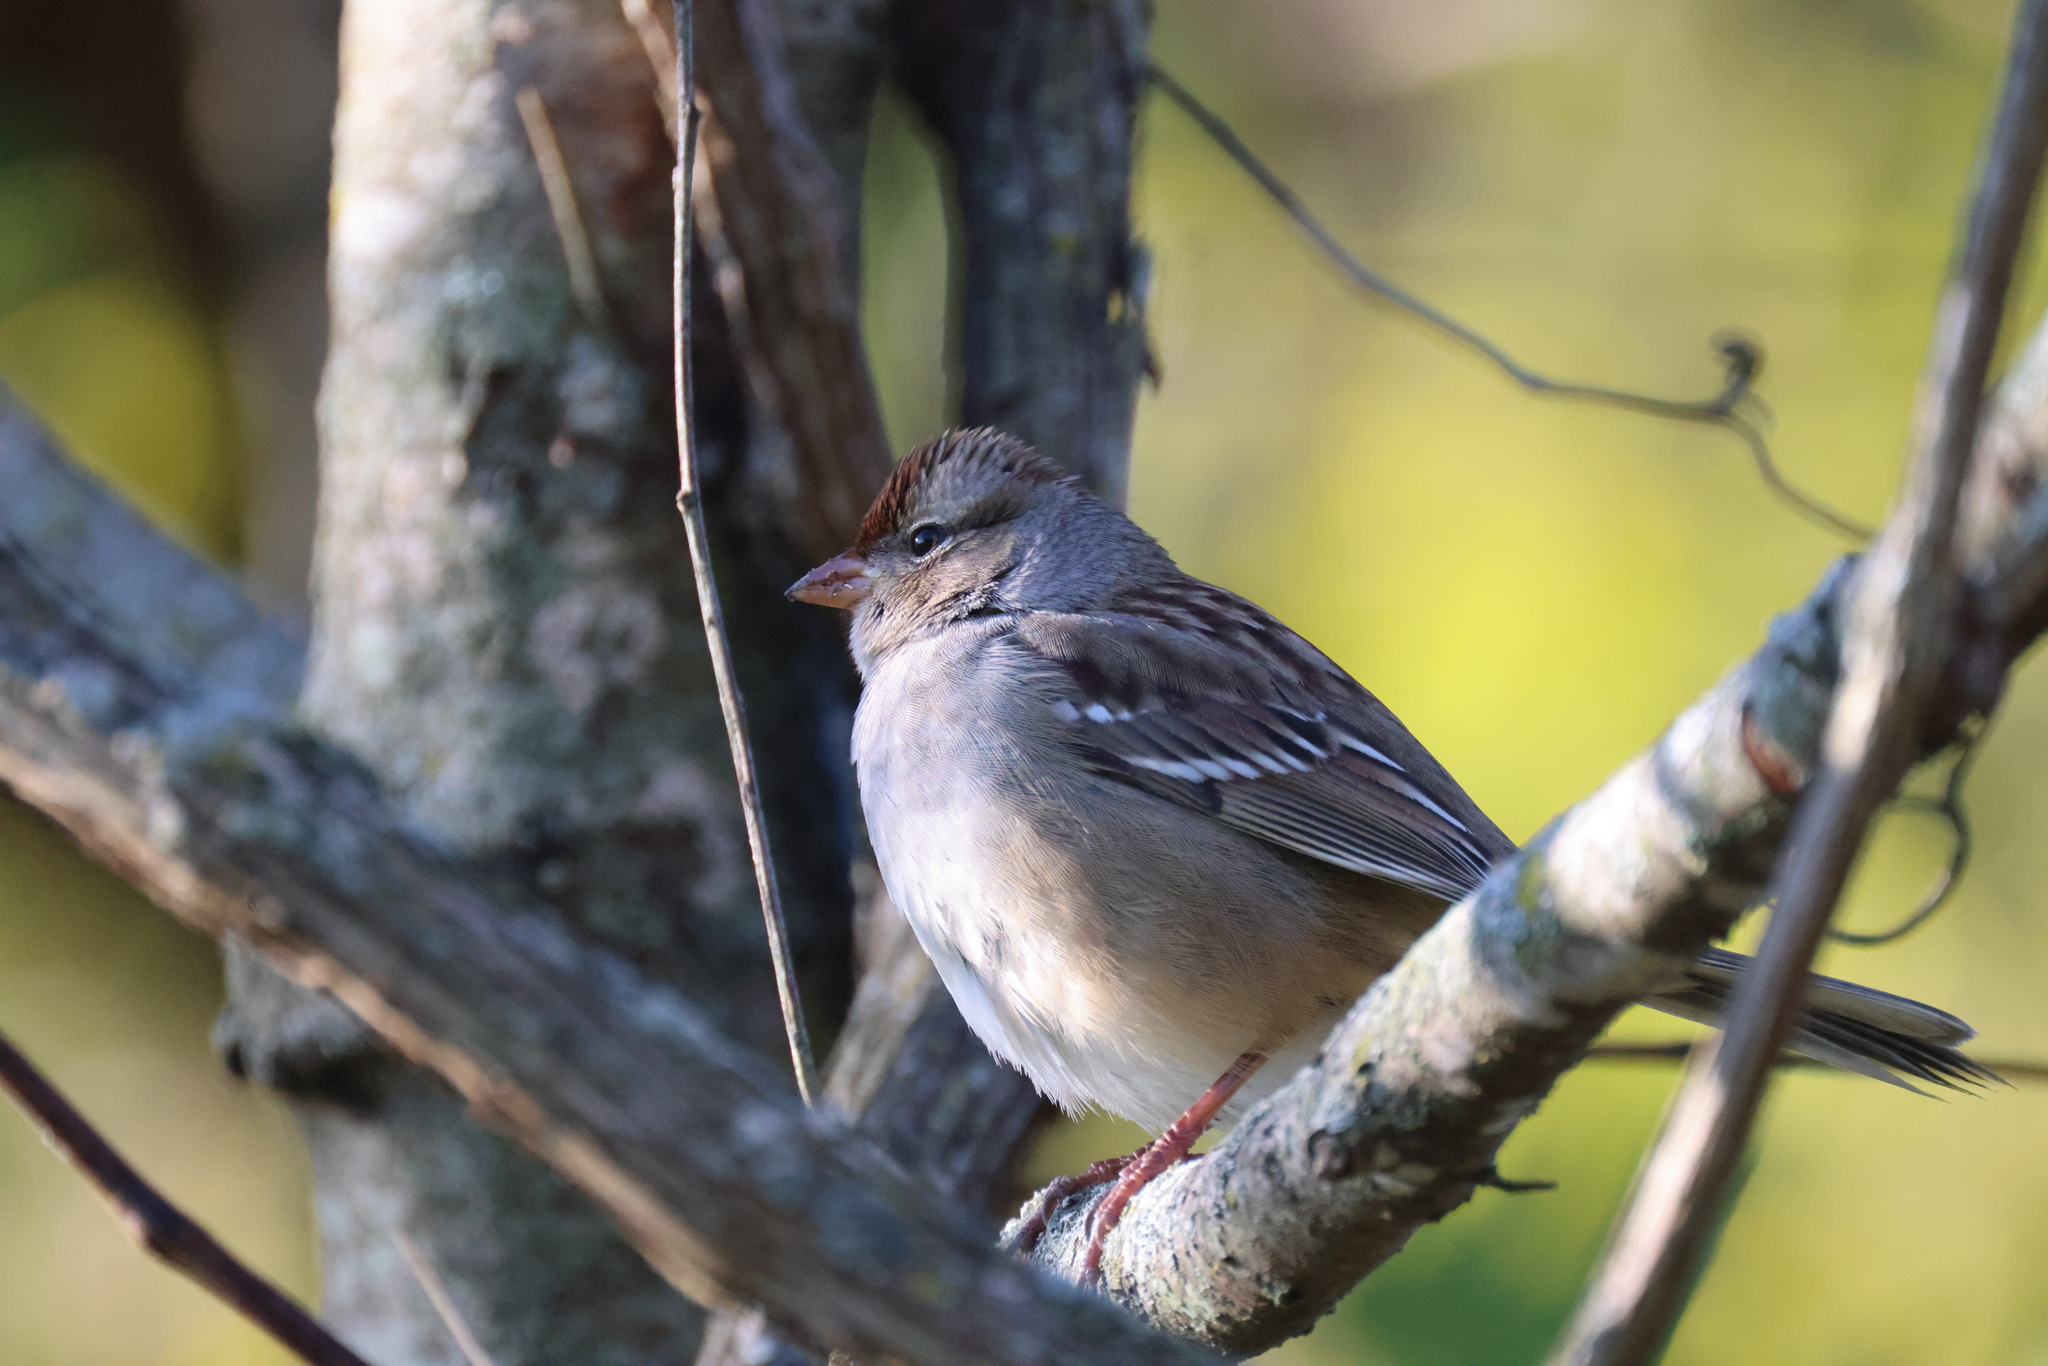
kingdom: Animalia
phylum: Chordata
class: Aves
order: Passeriformes
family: Passerellidae
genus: Zonotrichia
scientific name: Zonotrichia leucophrys
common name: White-crowned sparrow
